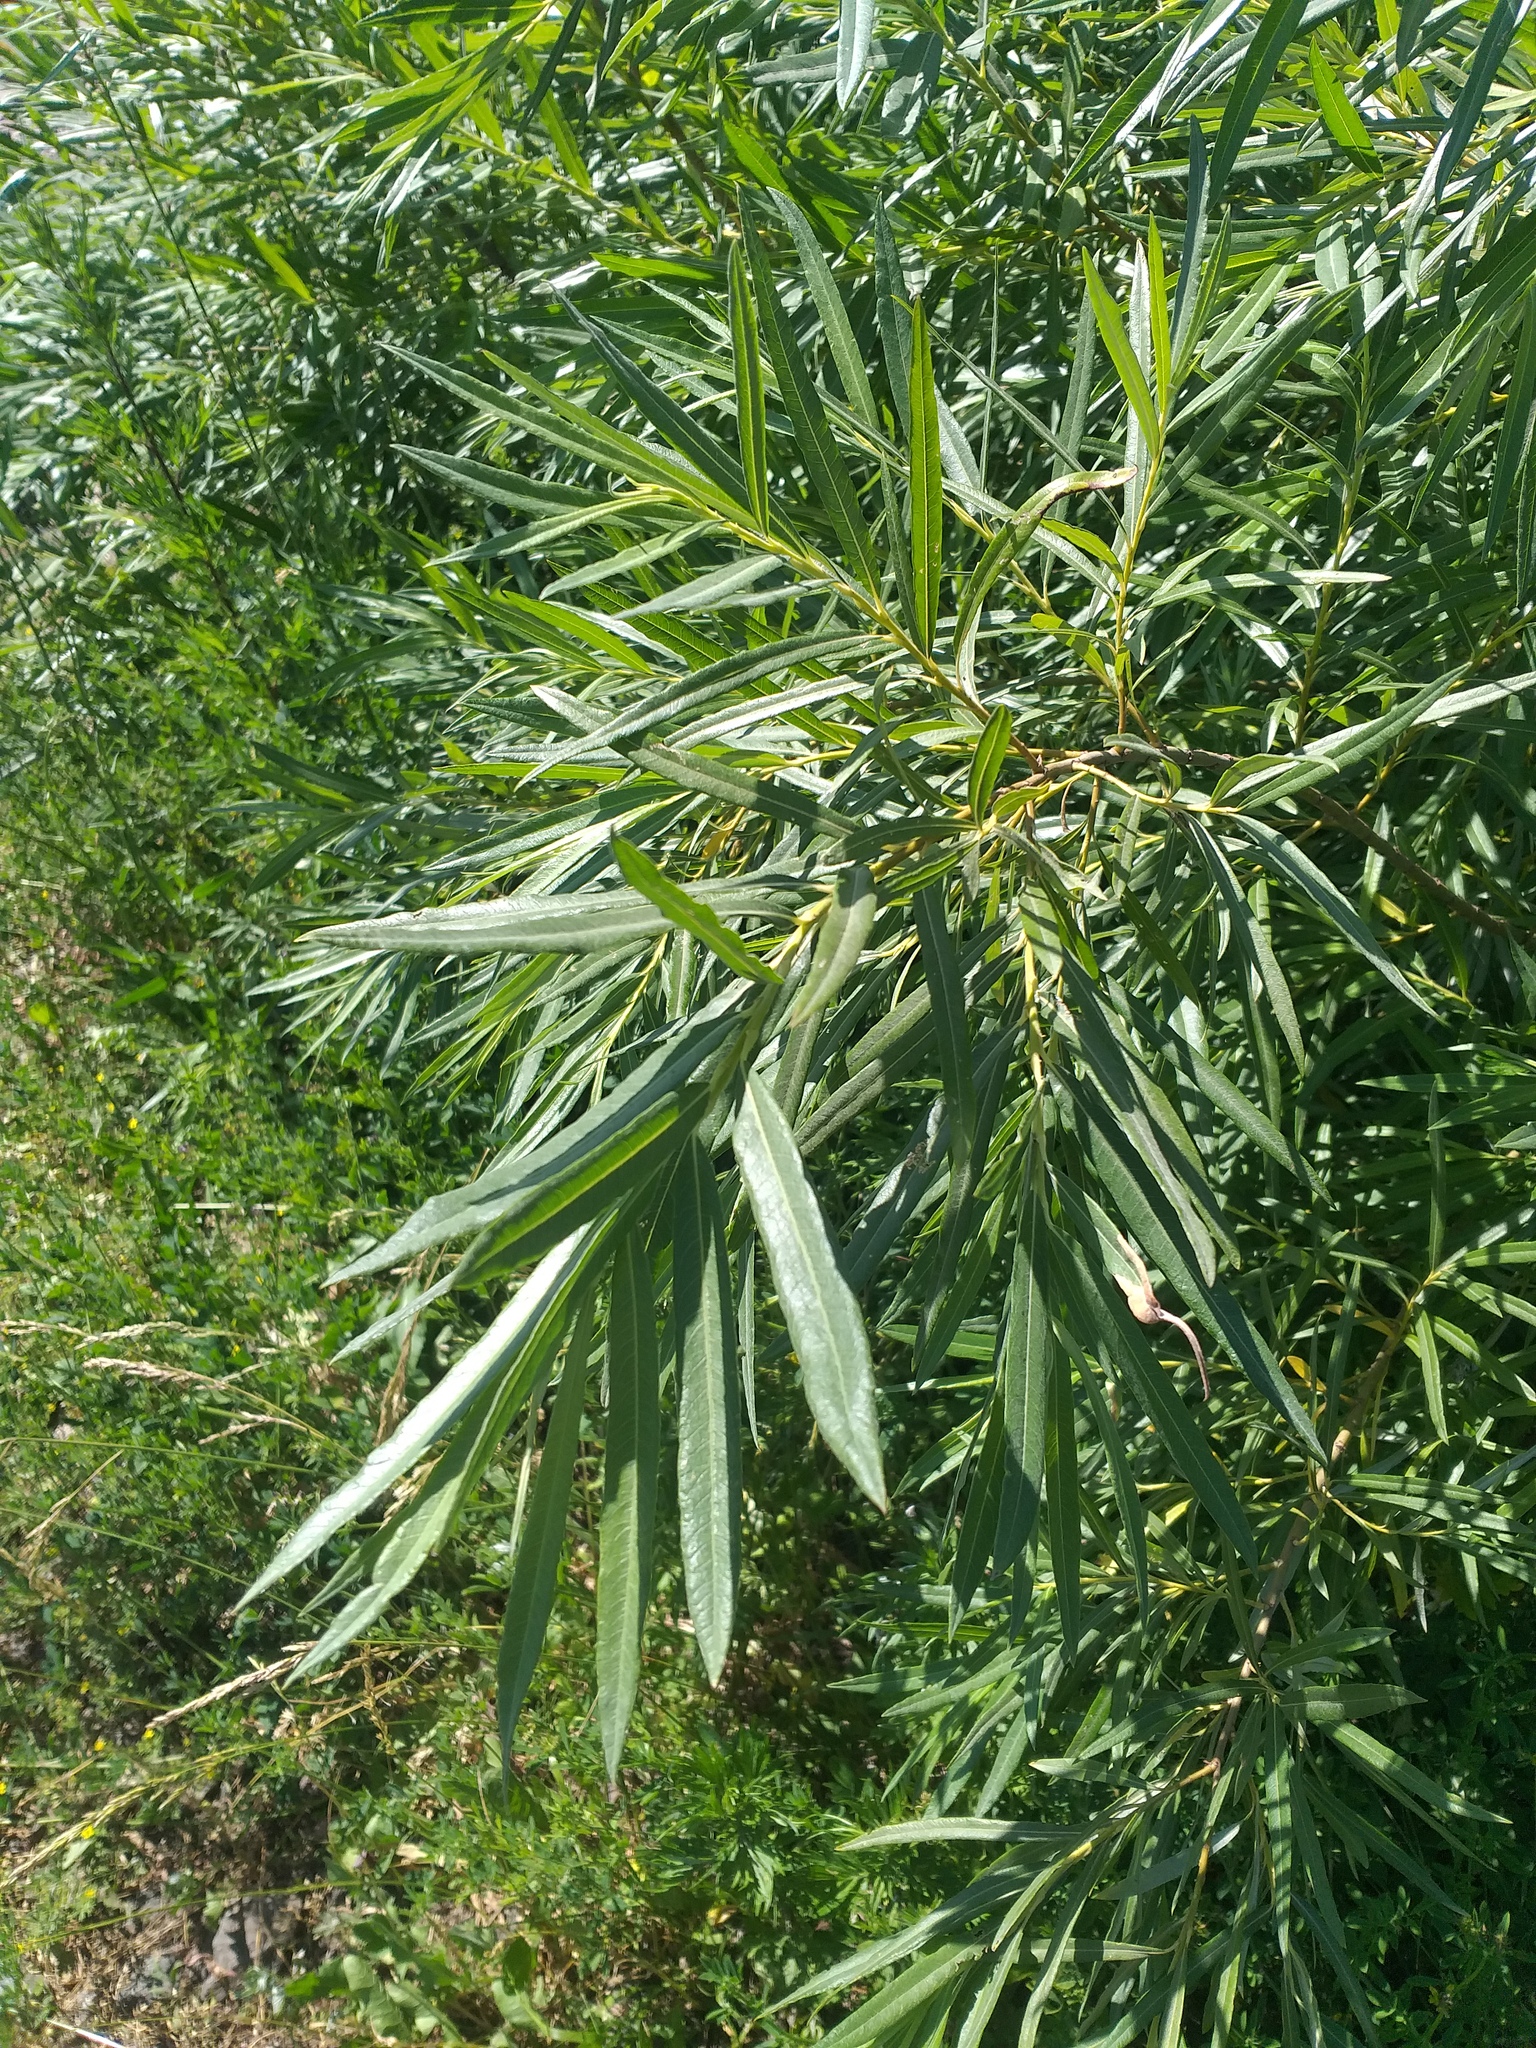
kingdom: Plantae
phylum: Tracheophyta
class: Magnoliopsida
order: Malpighiales
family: Salicaceae
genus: Salix
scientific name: Salix viminalis
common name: Osier
